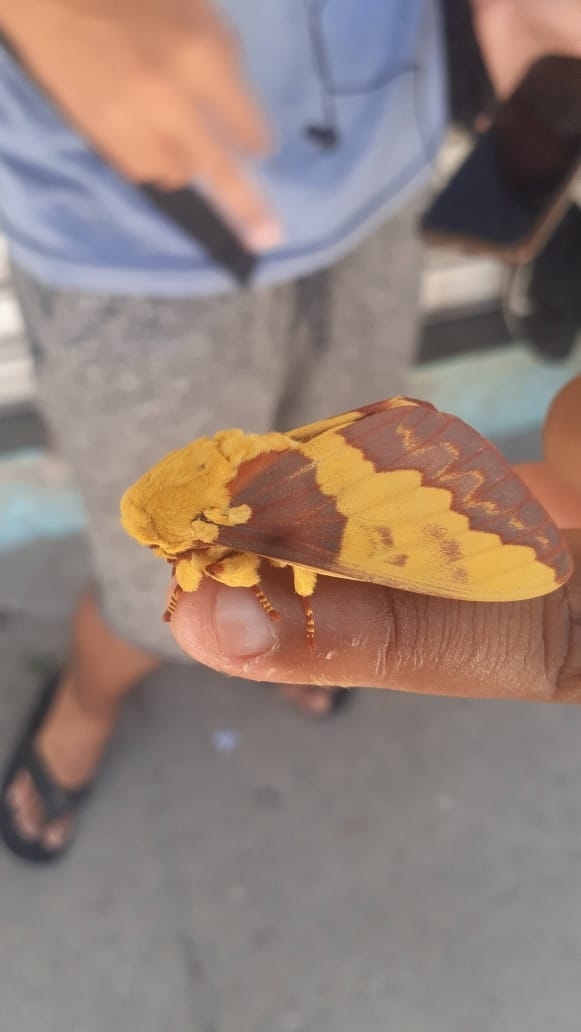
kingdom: Animalia
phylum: Arthropoda
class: Insecta
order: Lepidoptera
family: Saturniidae
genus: Citheronia
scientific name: Citheronia laocoon
